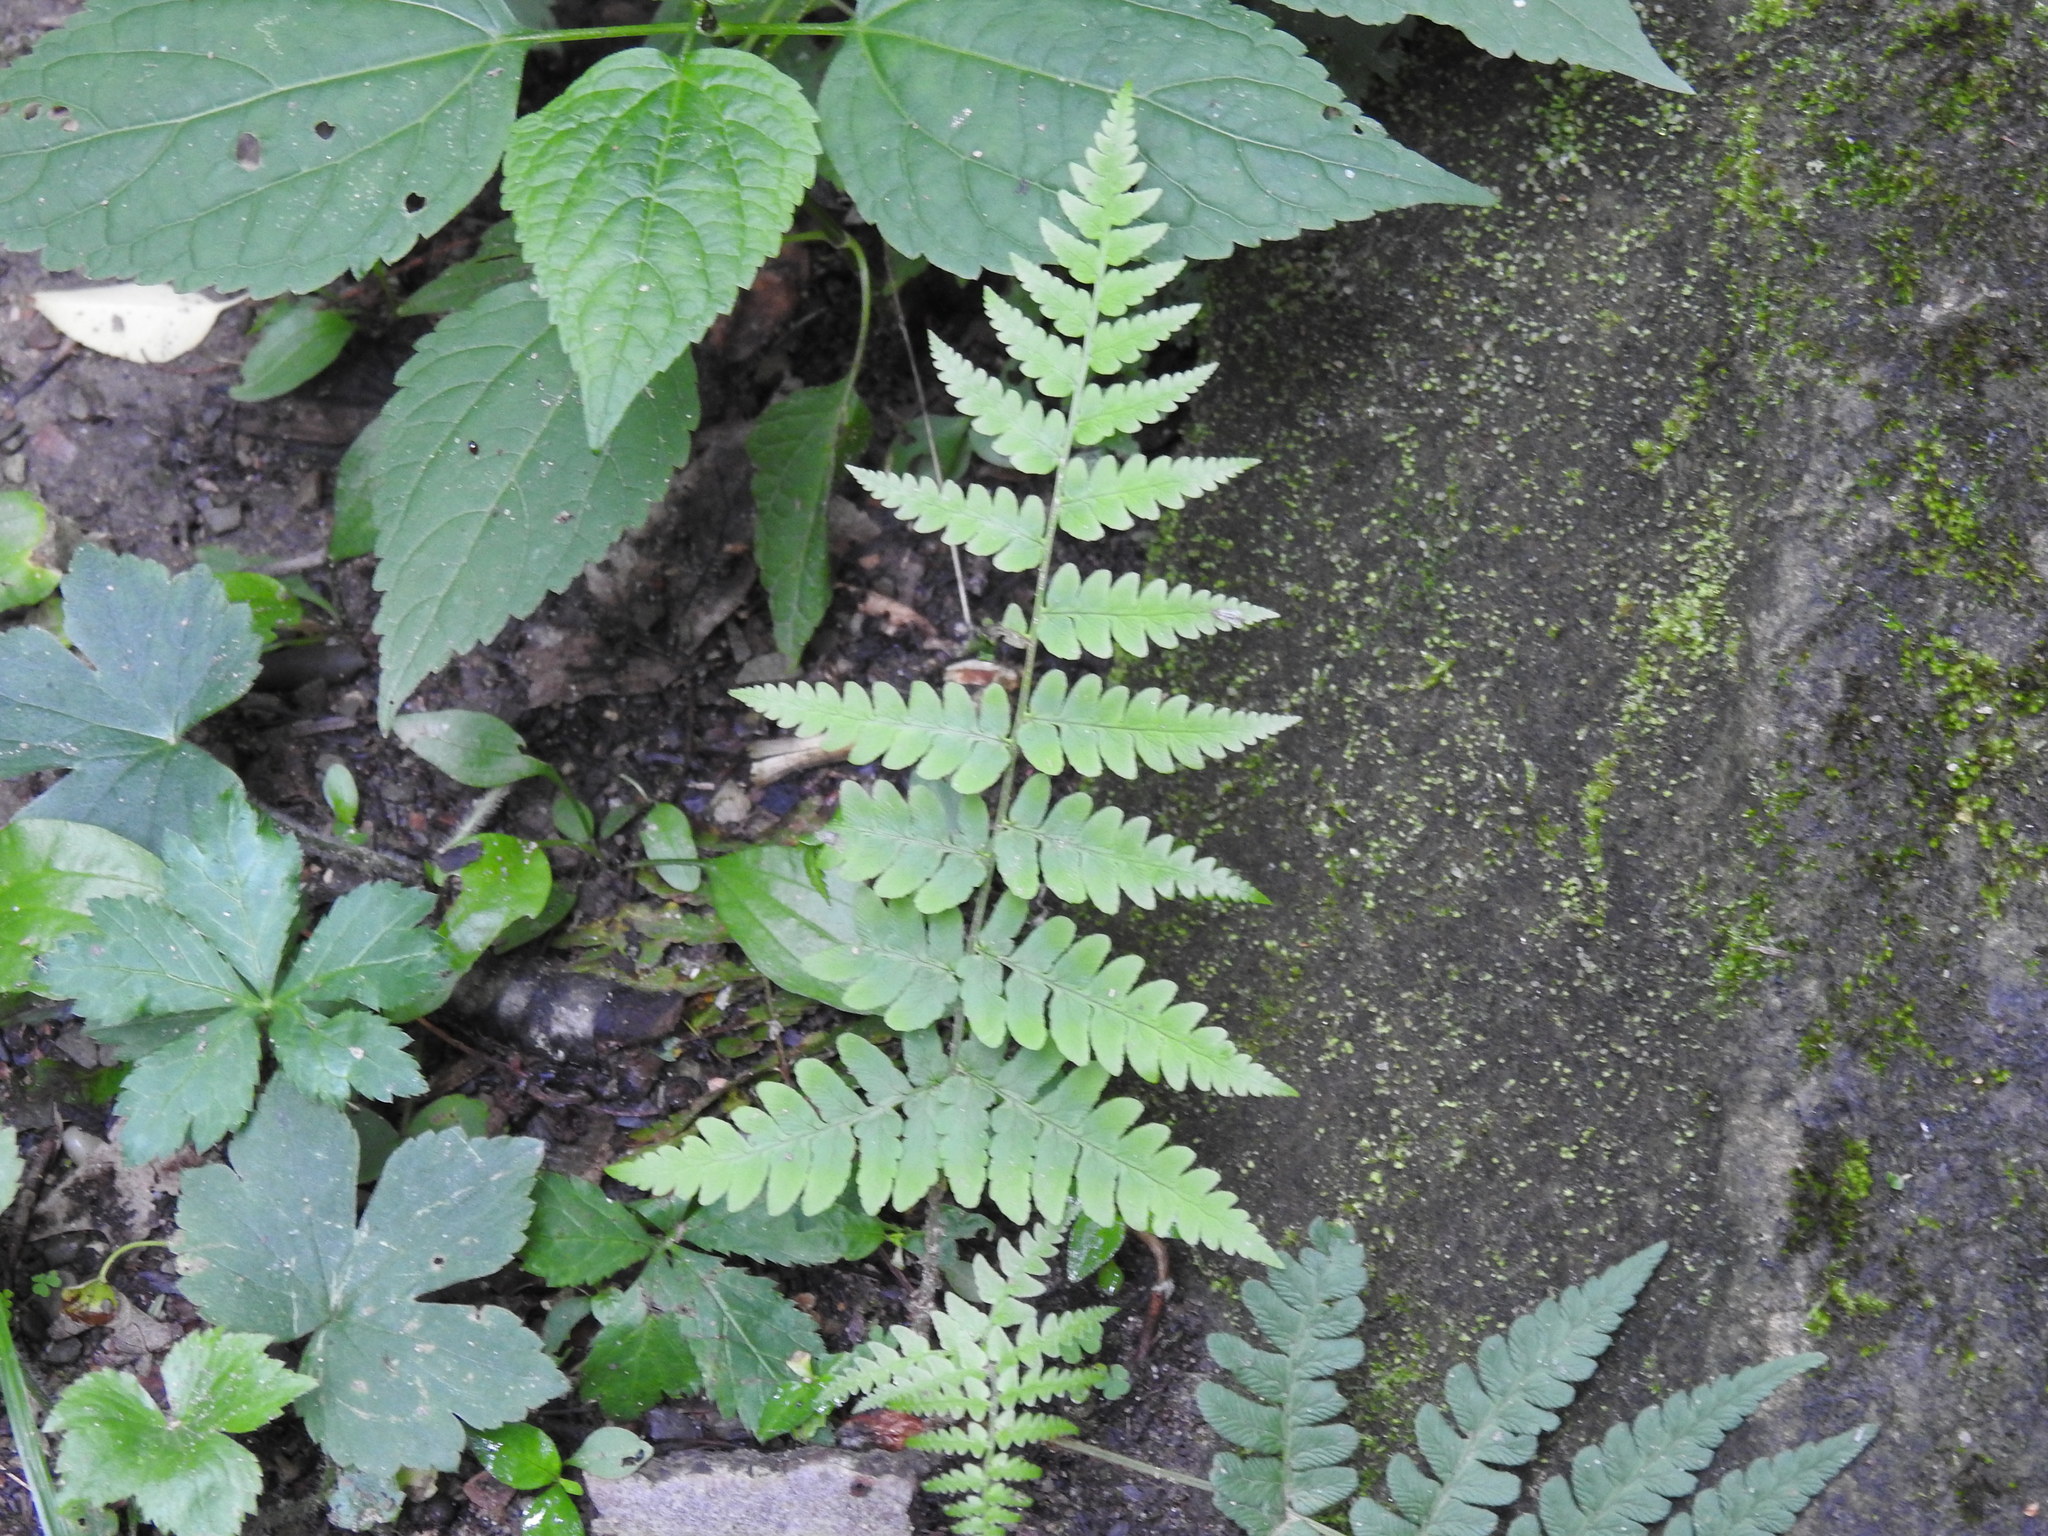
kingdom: Plantae
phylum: Tracheophyta
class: Polypodiopsida
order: Polypodiales
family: Dryopteridaceae
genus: Dryopteris
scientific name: Dryopteris marginalis
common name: Marginal wood fern
